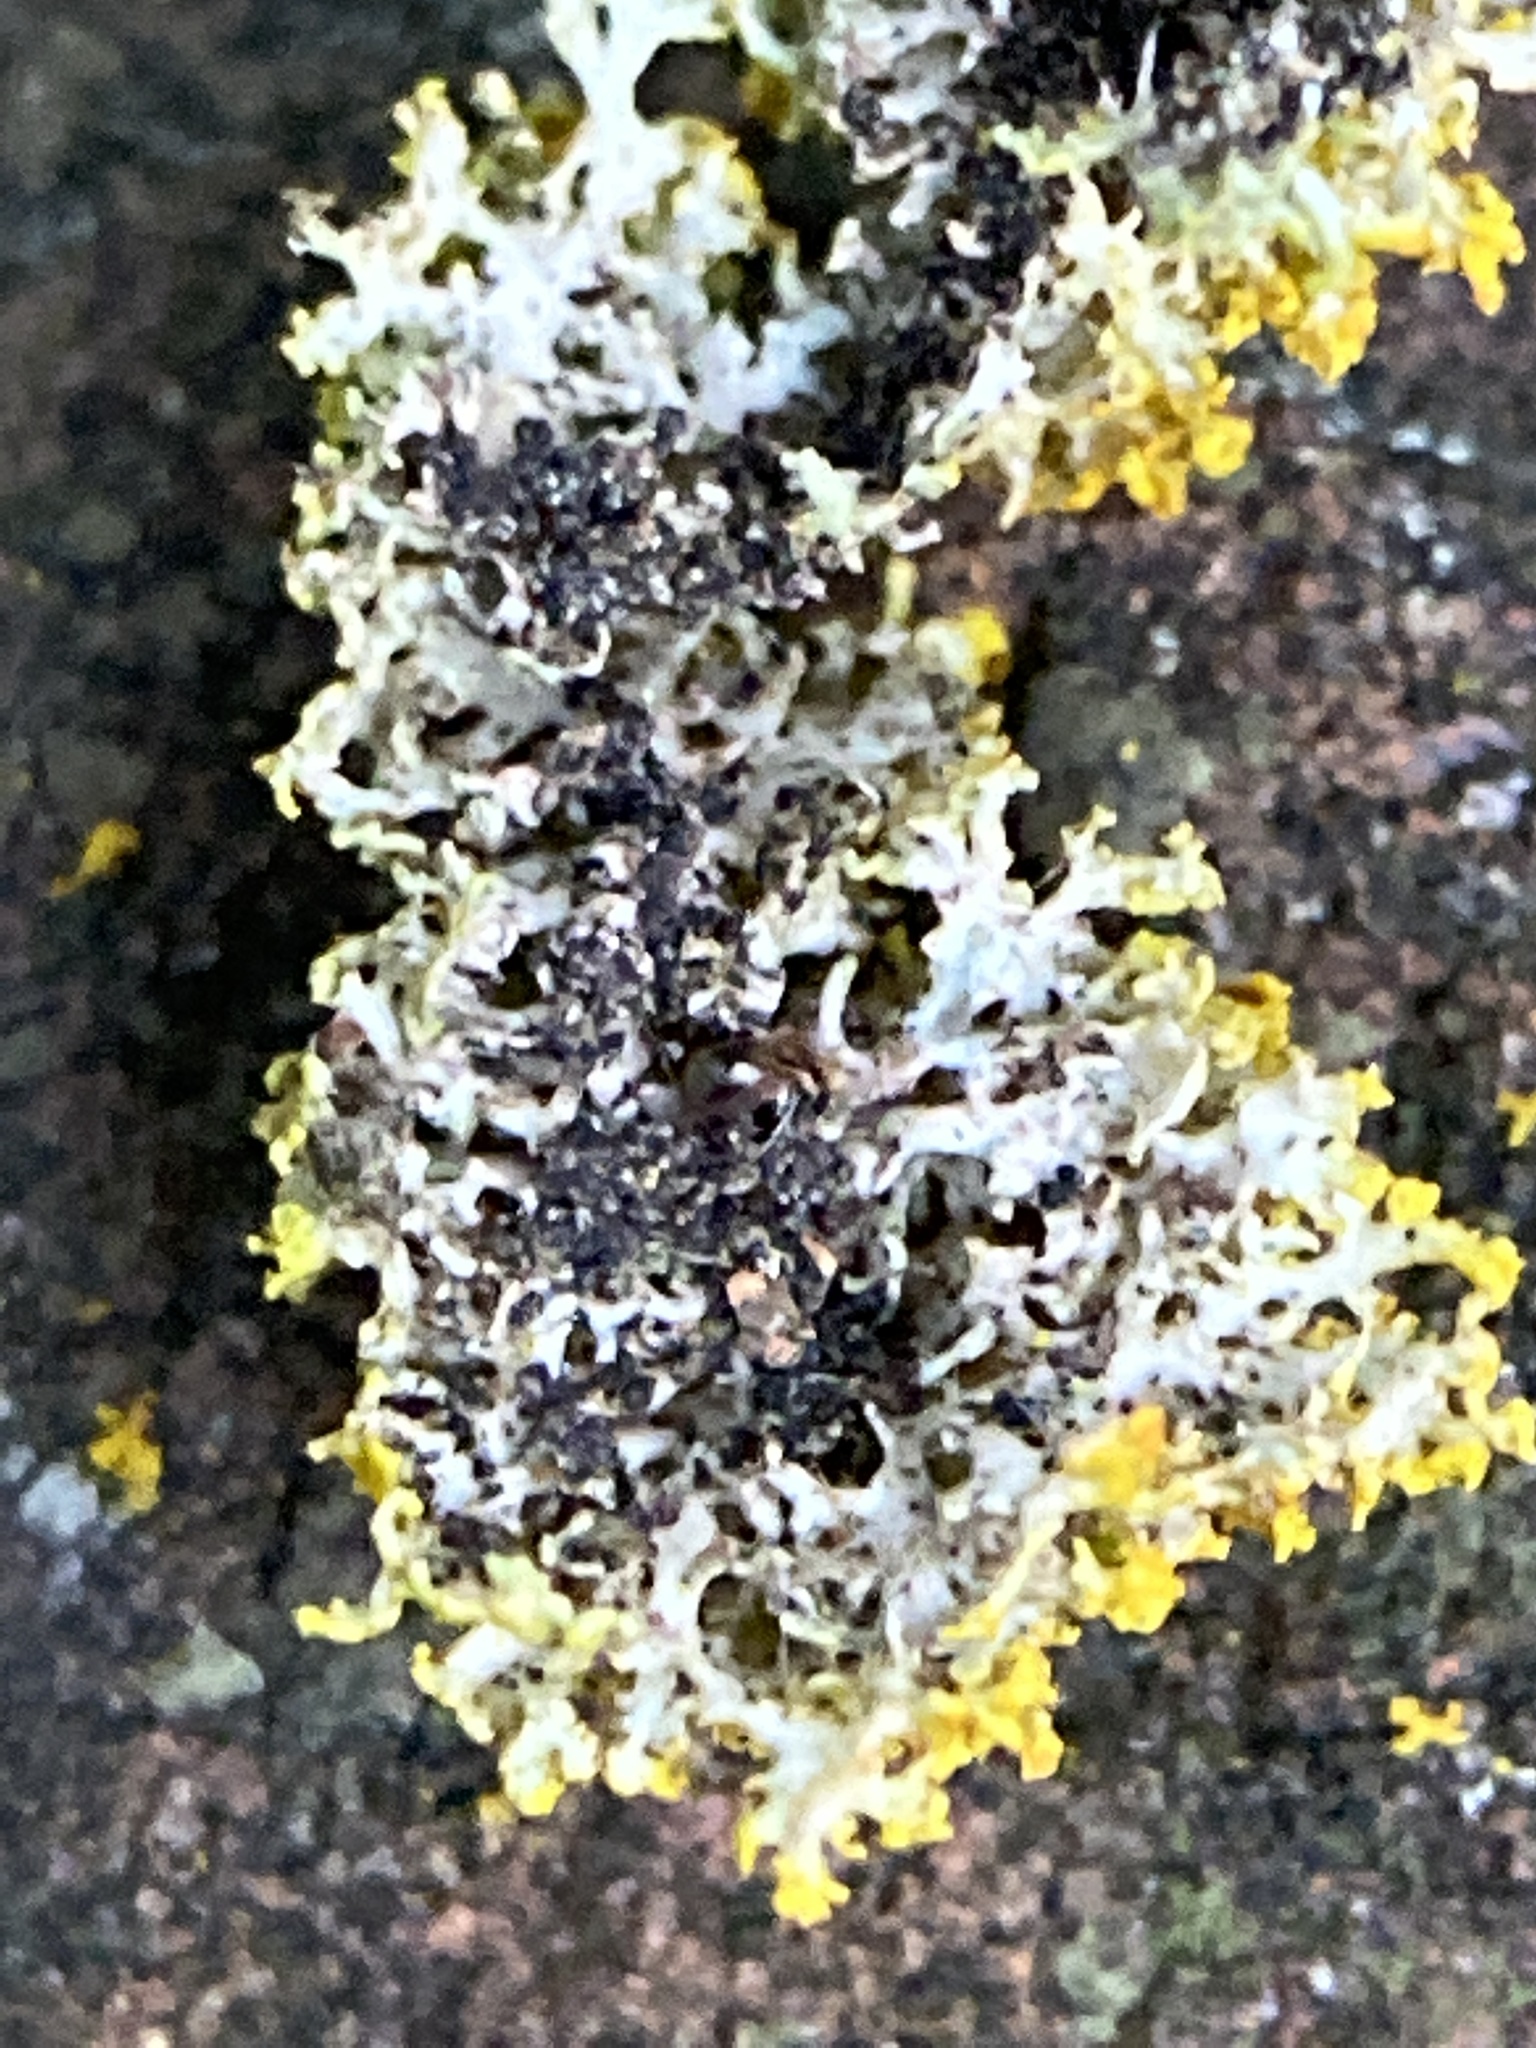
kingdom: Fungi
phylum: Ascomycota
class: Lecanoromycetes
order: Teloschistales
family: Teloschistaceae
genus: Gallowayella
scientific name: Gallowayella weberi
